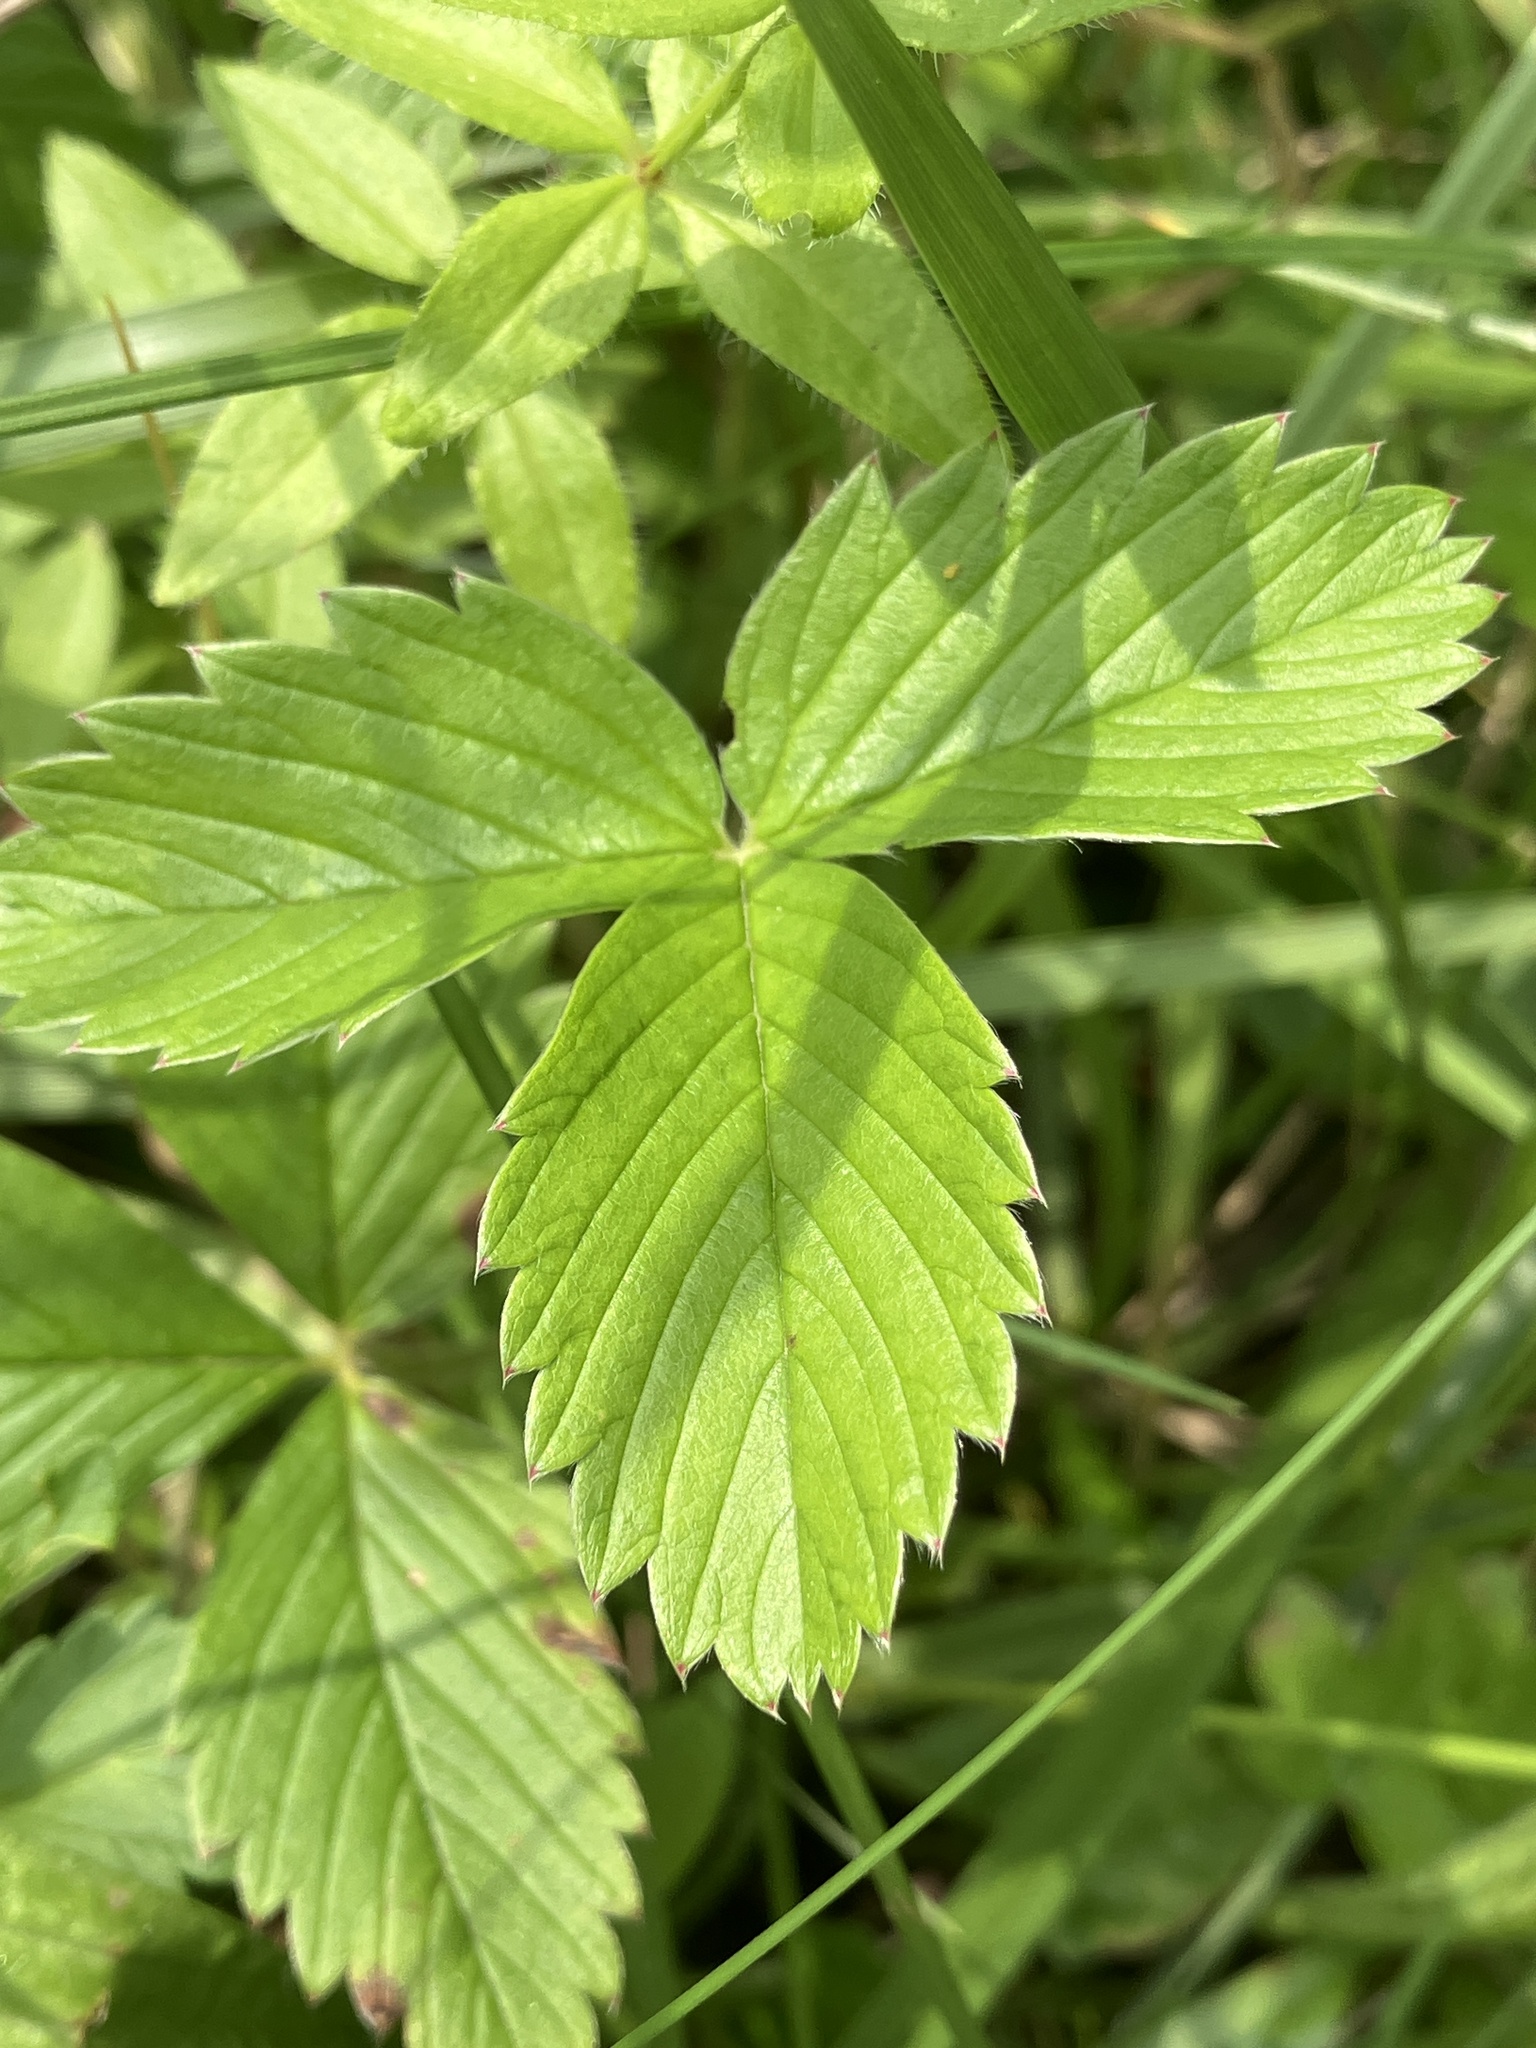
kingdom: Plantae
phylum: Tracheophyta
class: Magnoliopsida
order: Rosales
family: Rosaceae
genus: Fragaria
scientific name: Fragaria viridis
